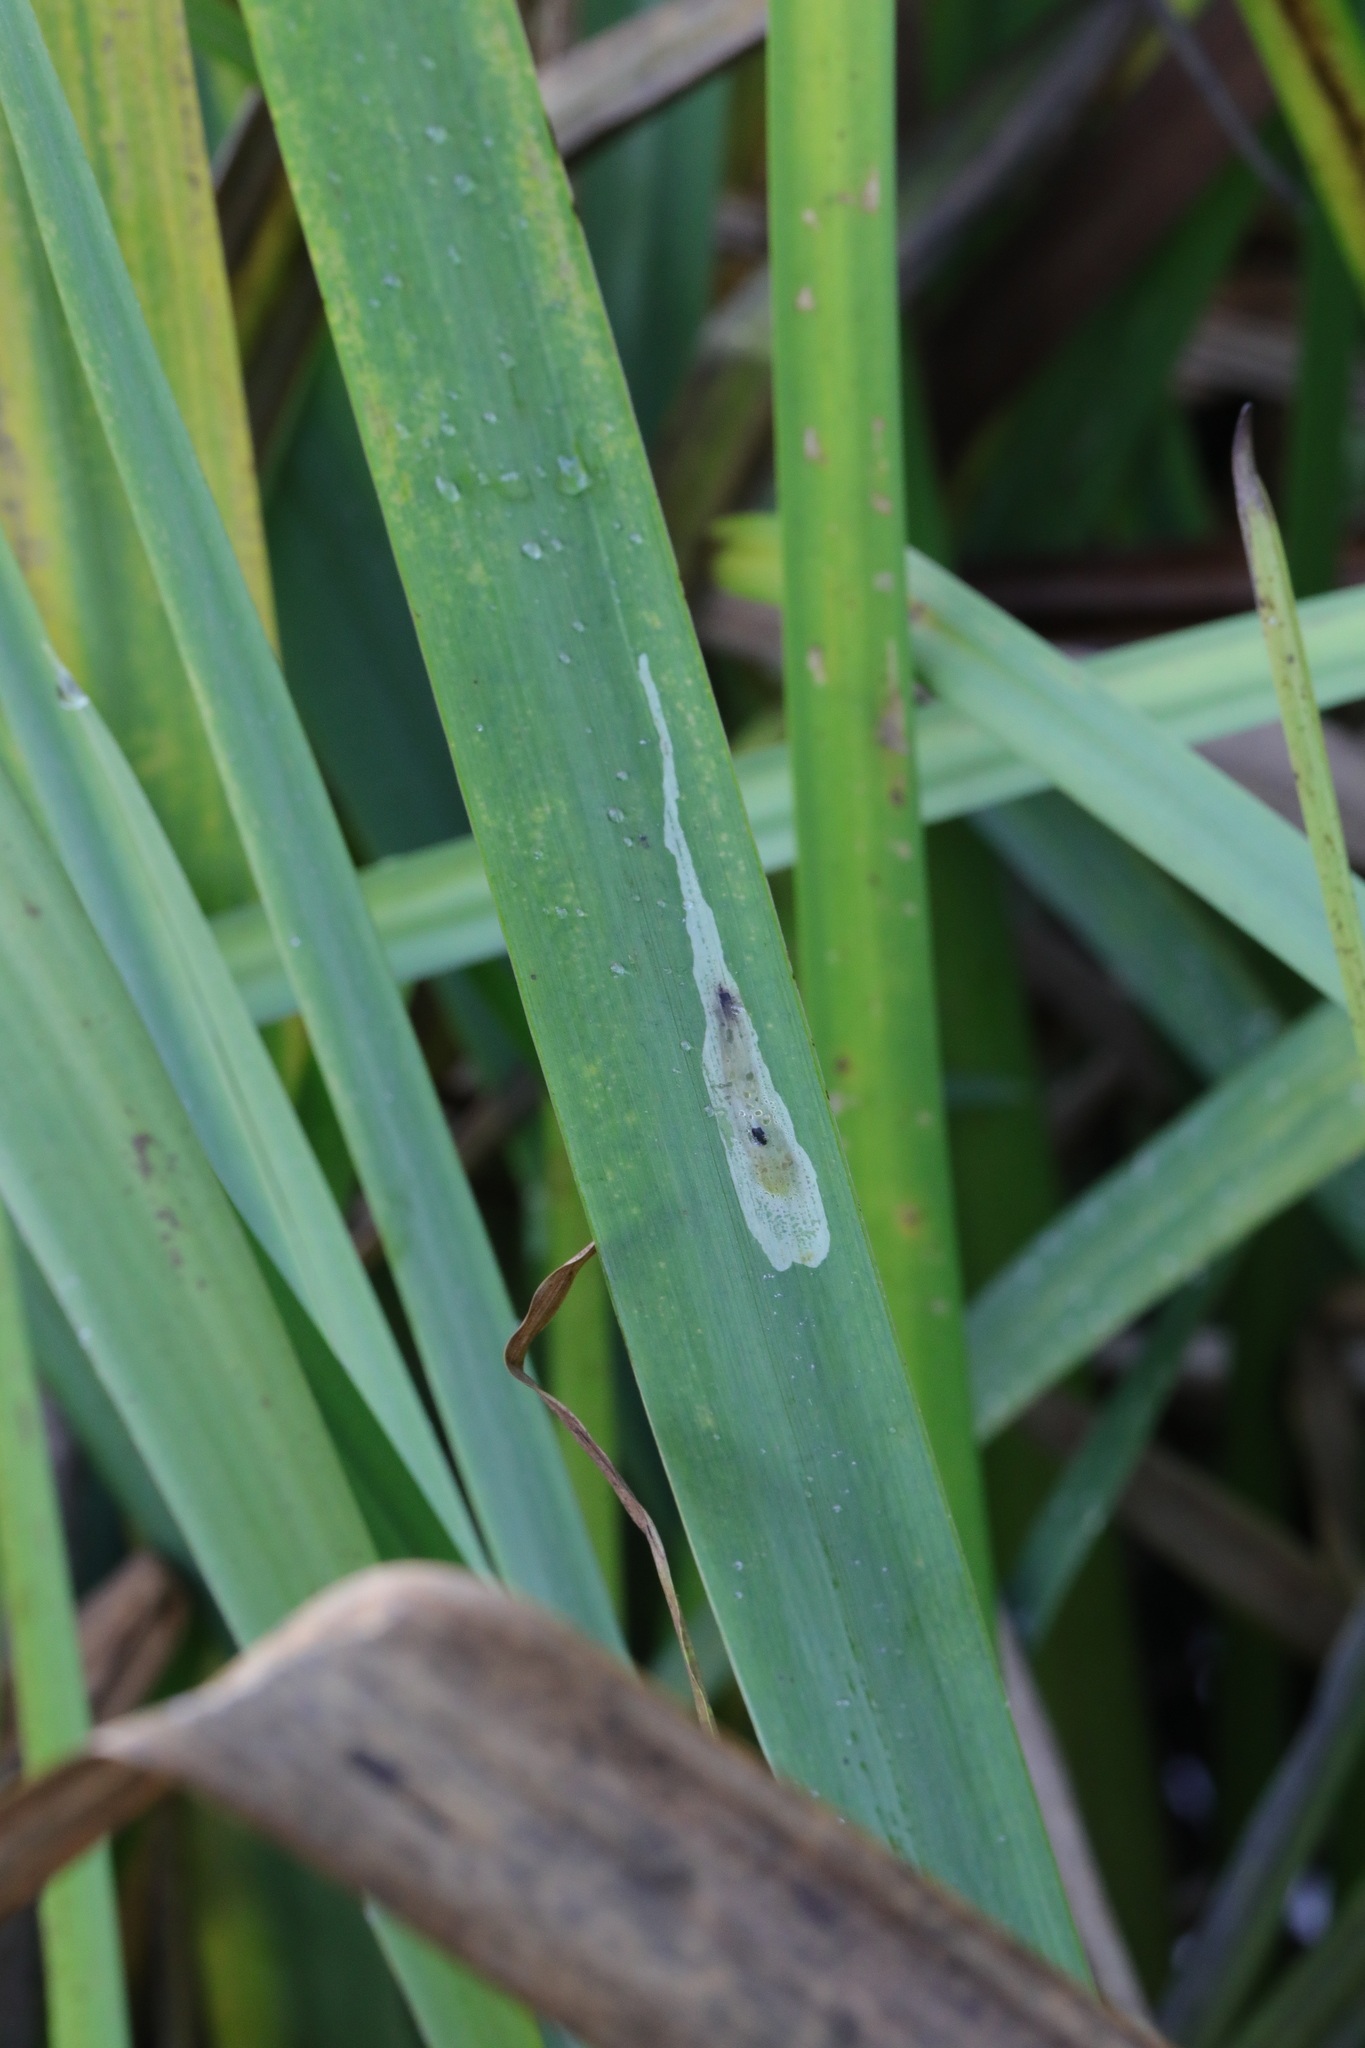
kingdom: Animalia
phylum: Arthropoda
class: Insecta
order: Diptera
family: Agromyzidae
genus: Cerodontha
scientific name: Cerodontha ircos
